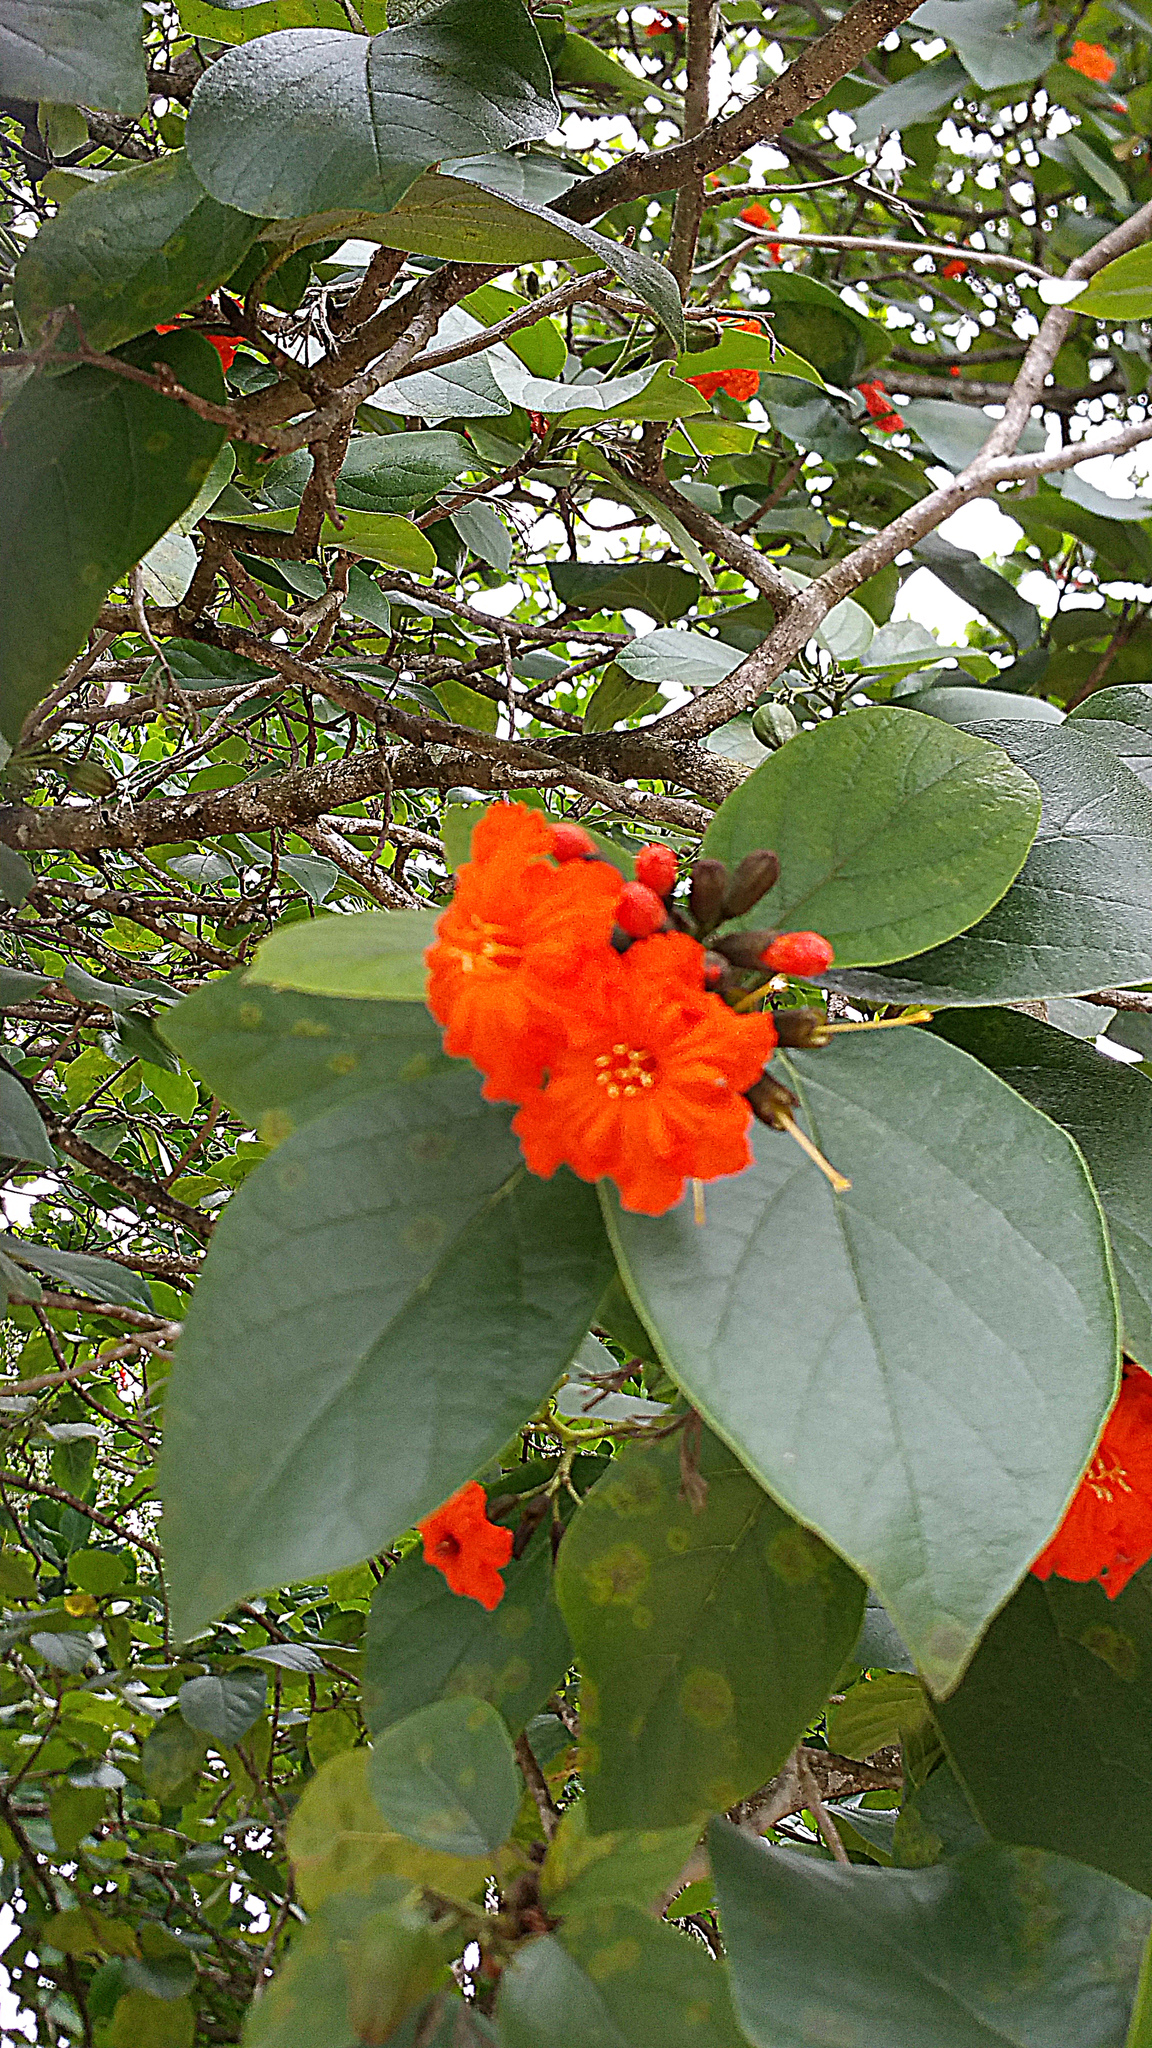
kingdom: Plantae
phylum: Tracheophyta
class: Magnoliopsida
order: Boraginales
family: Cordiaceae
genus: Cordia
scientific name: Cordia sebestena
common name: Largeleaf geigertree
